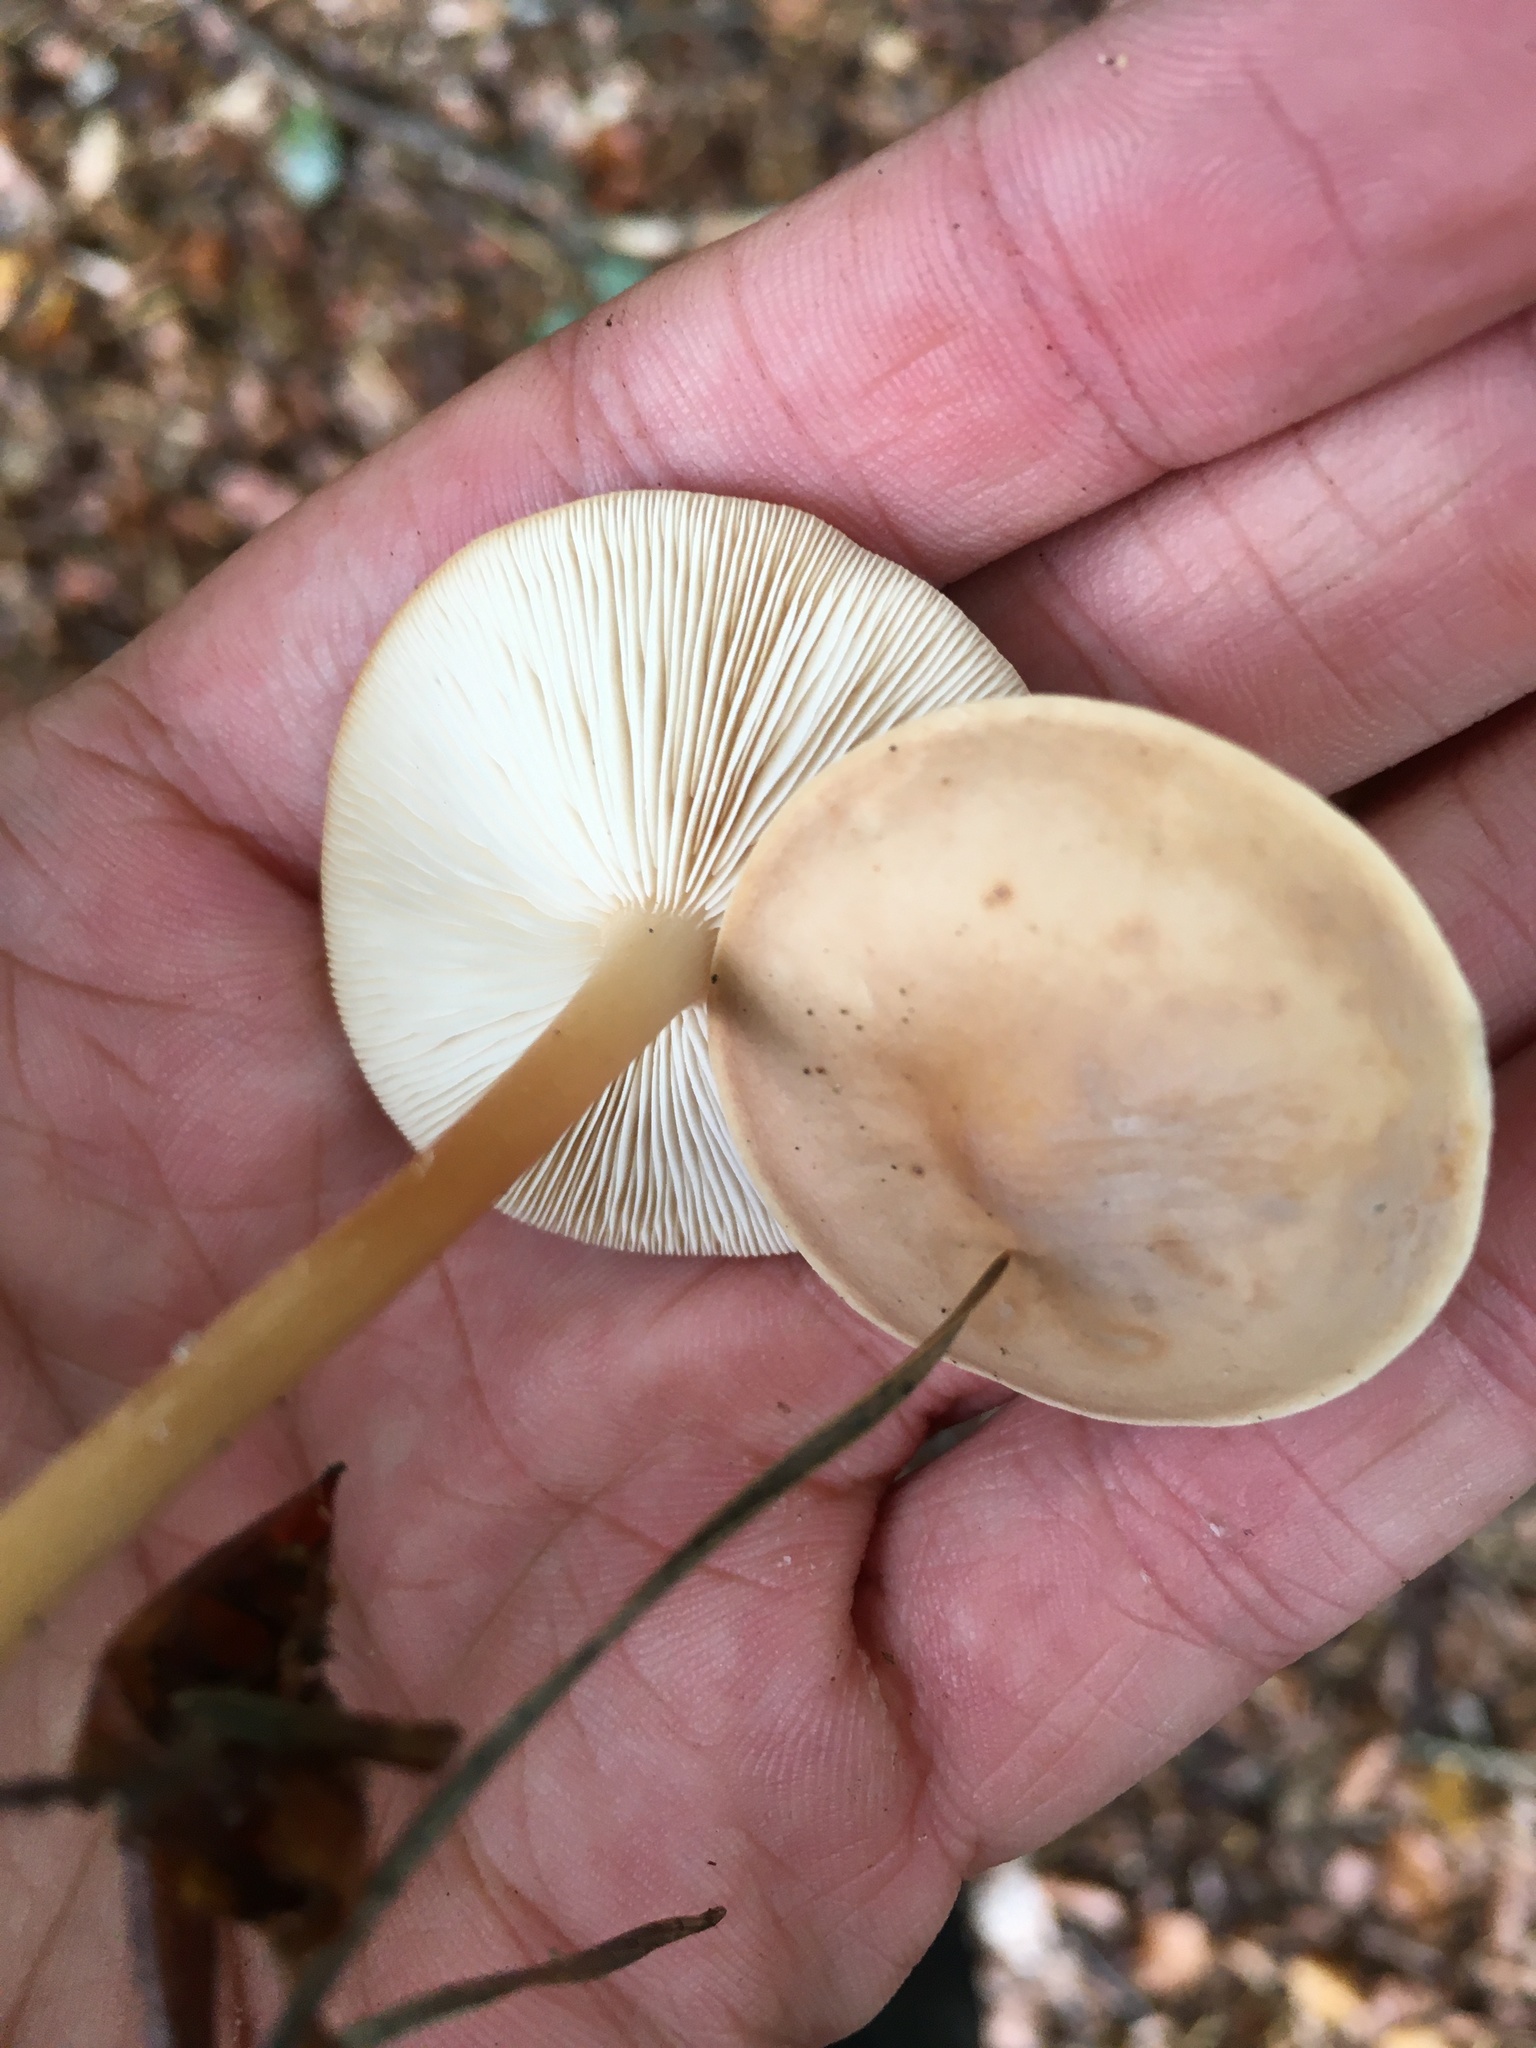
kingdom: Fungi
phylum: Basidiomycota
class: Agaricomycetes
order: Agaricales
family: Omphalotaceae
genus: Gymnopus
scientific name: Gymnopus
